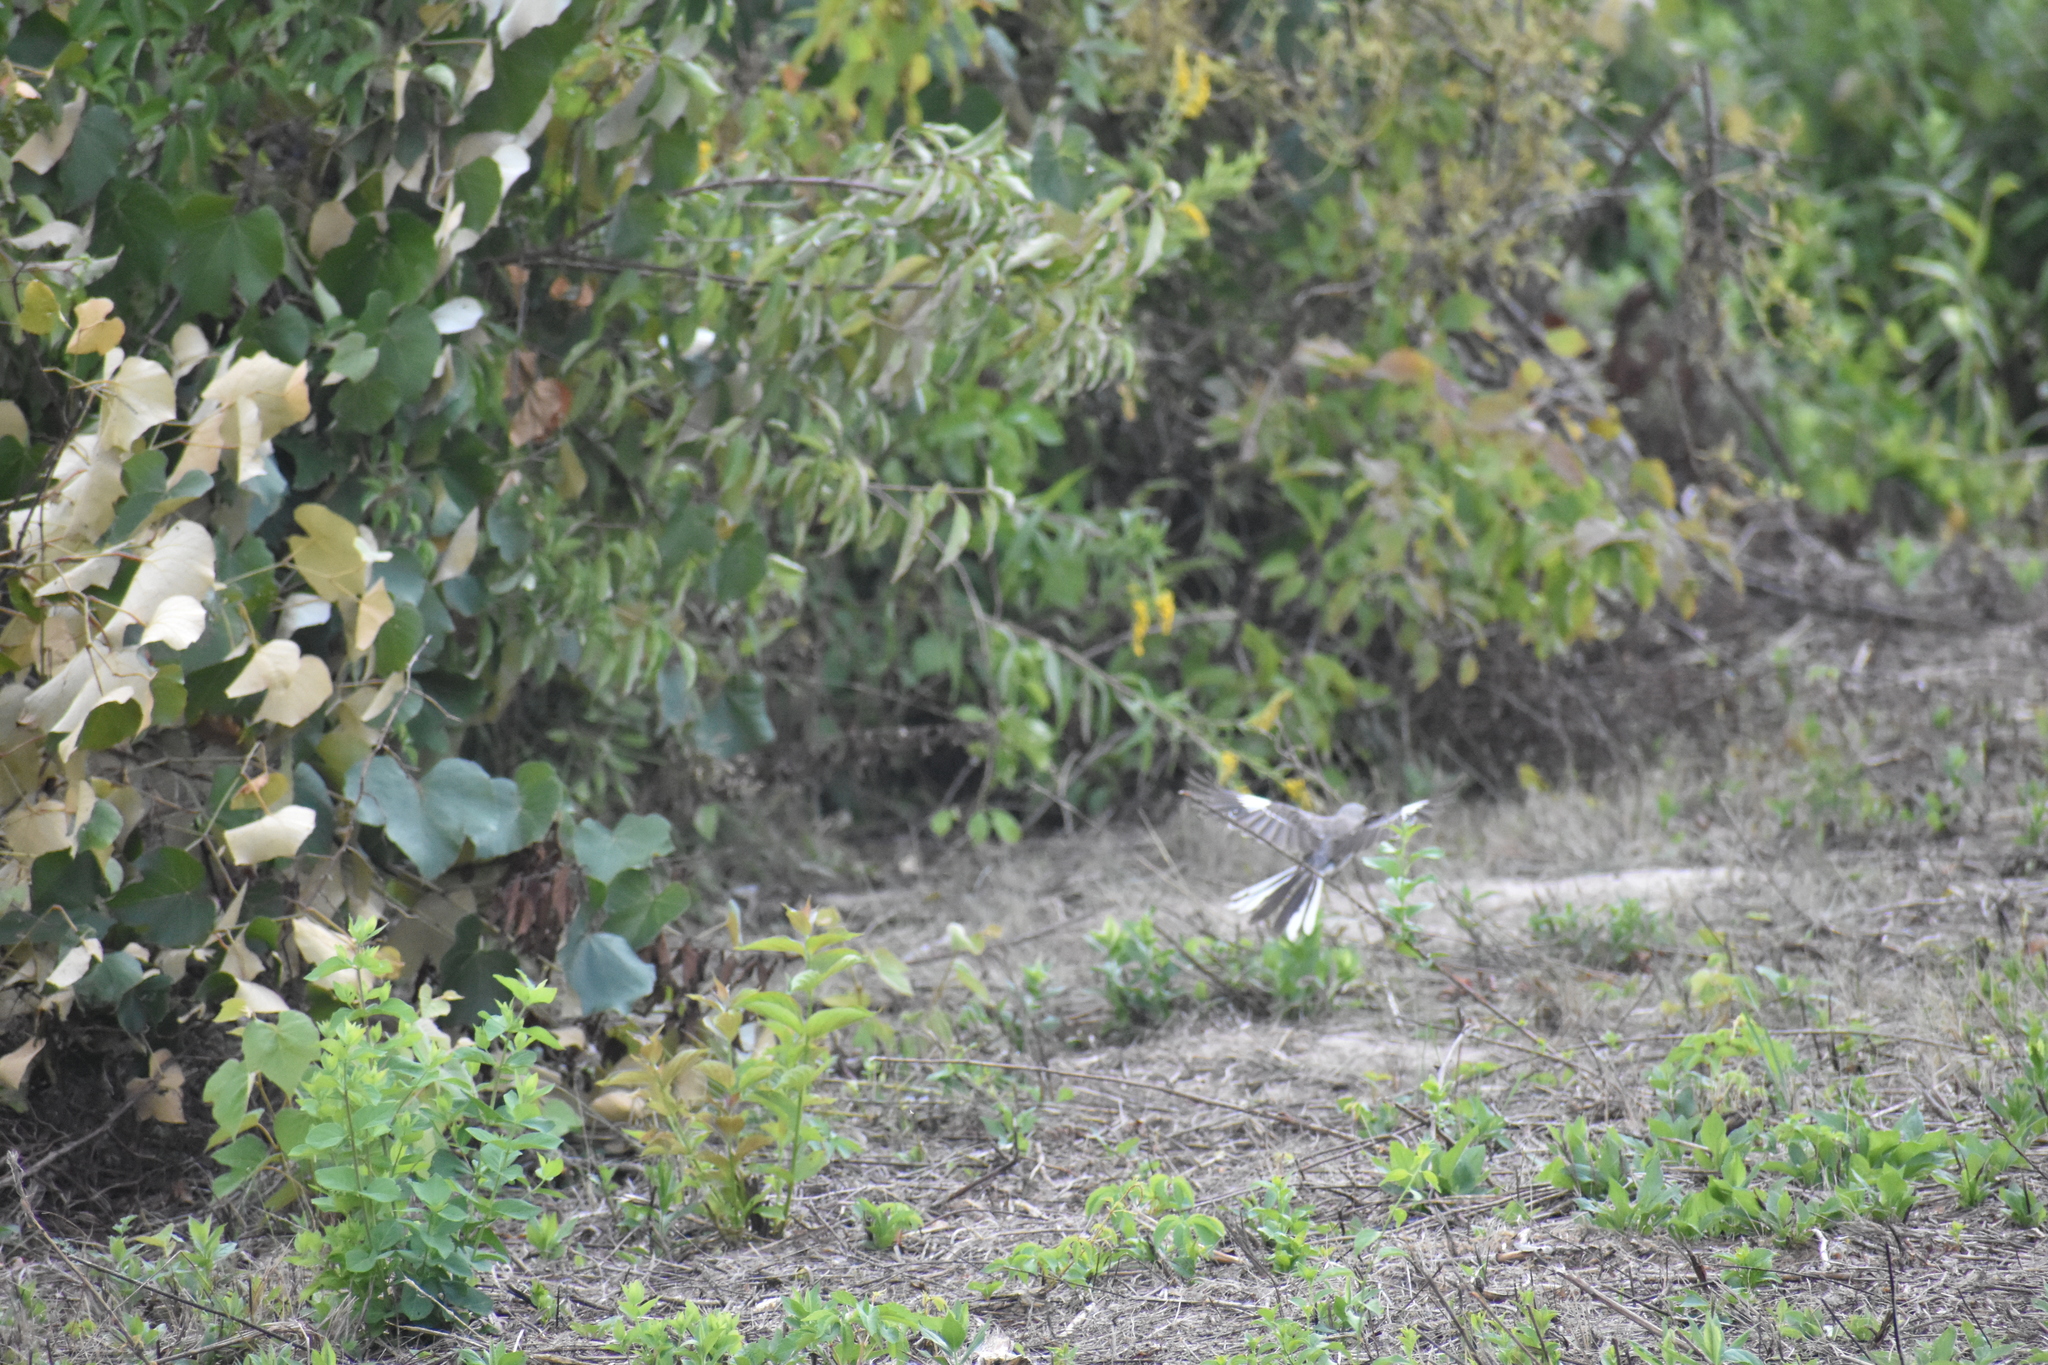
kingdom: Animalia
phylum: Chordata
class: Aves
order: Passeriformes
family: Mimidae
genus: Mimus
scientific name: Mimus polyglottos
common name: Northern mockingbird
